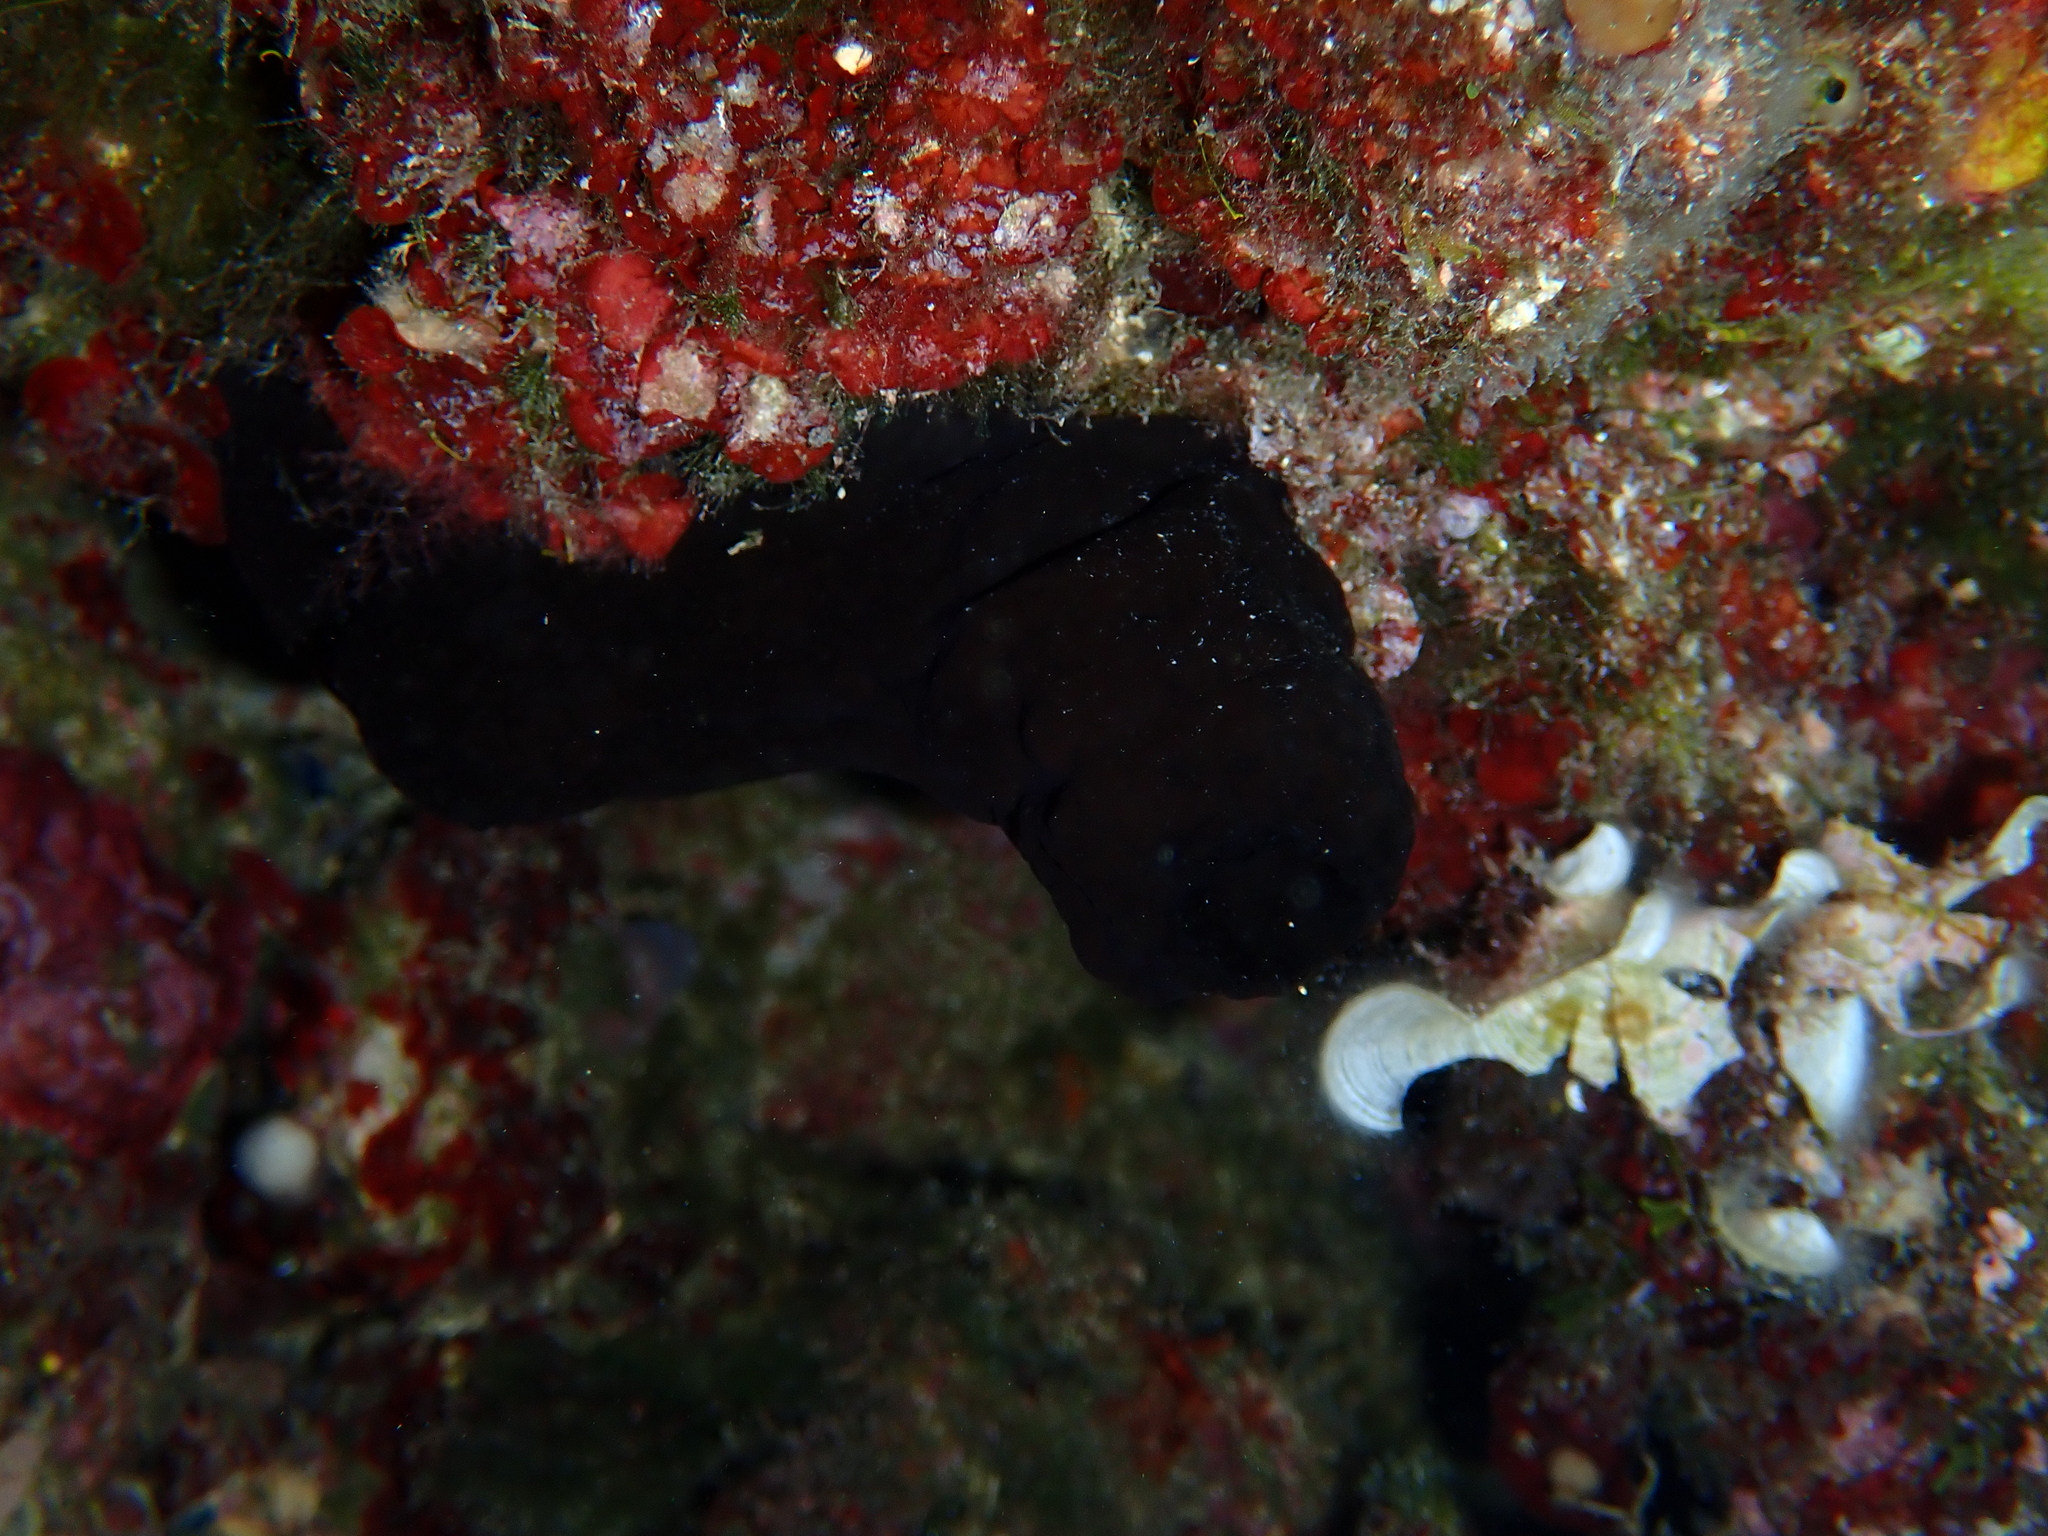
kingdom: Animalia
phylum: Chordata
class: Ascidiacea
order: Phlebobranchia
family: Ascidiidae
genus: Phallusia
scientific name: Phallusia fumigata
